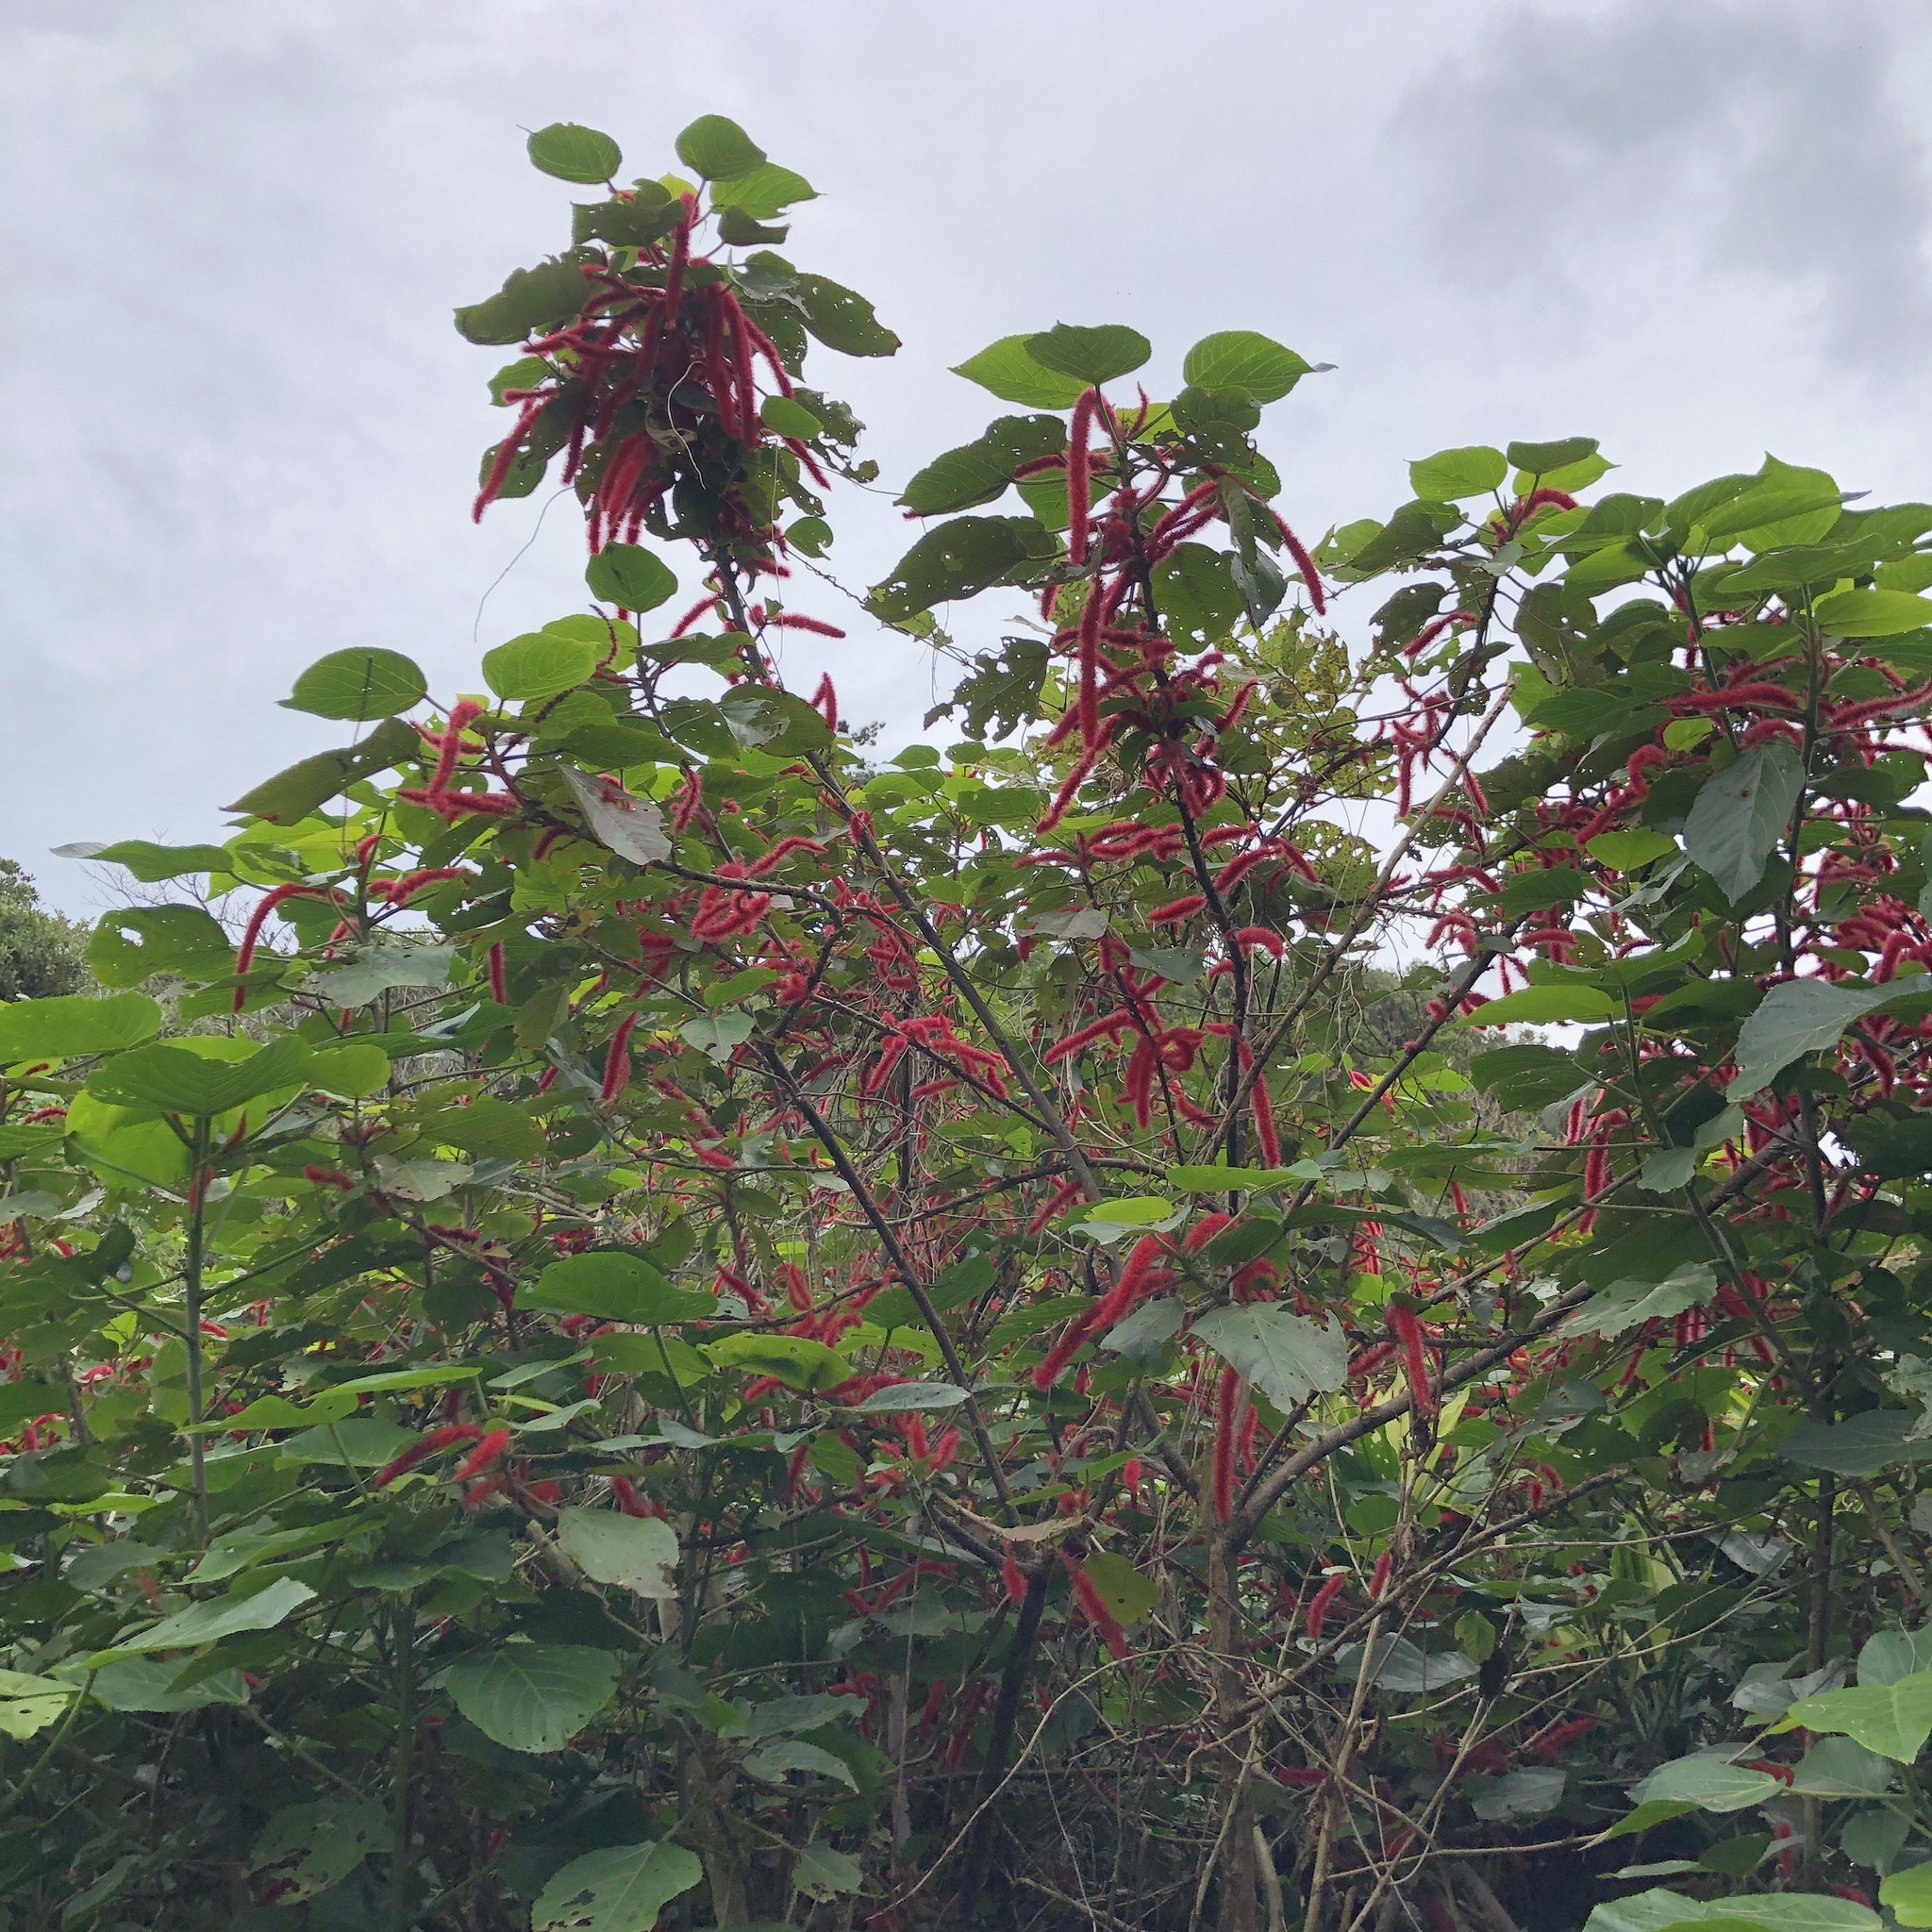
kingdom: Plantae
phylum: Tracheophyta
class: Magnoliopsida
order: Malpighiales
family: Euphorbiaceae
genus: Acalypha
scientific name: Acalypha hispida
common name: Chenilleplant
